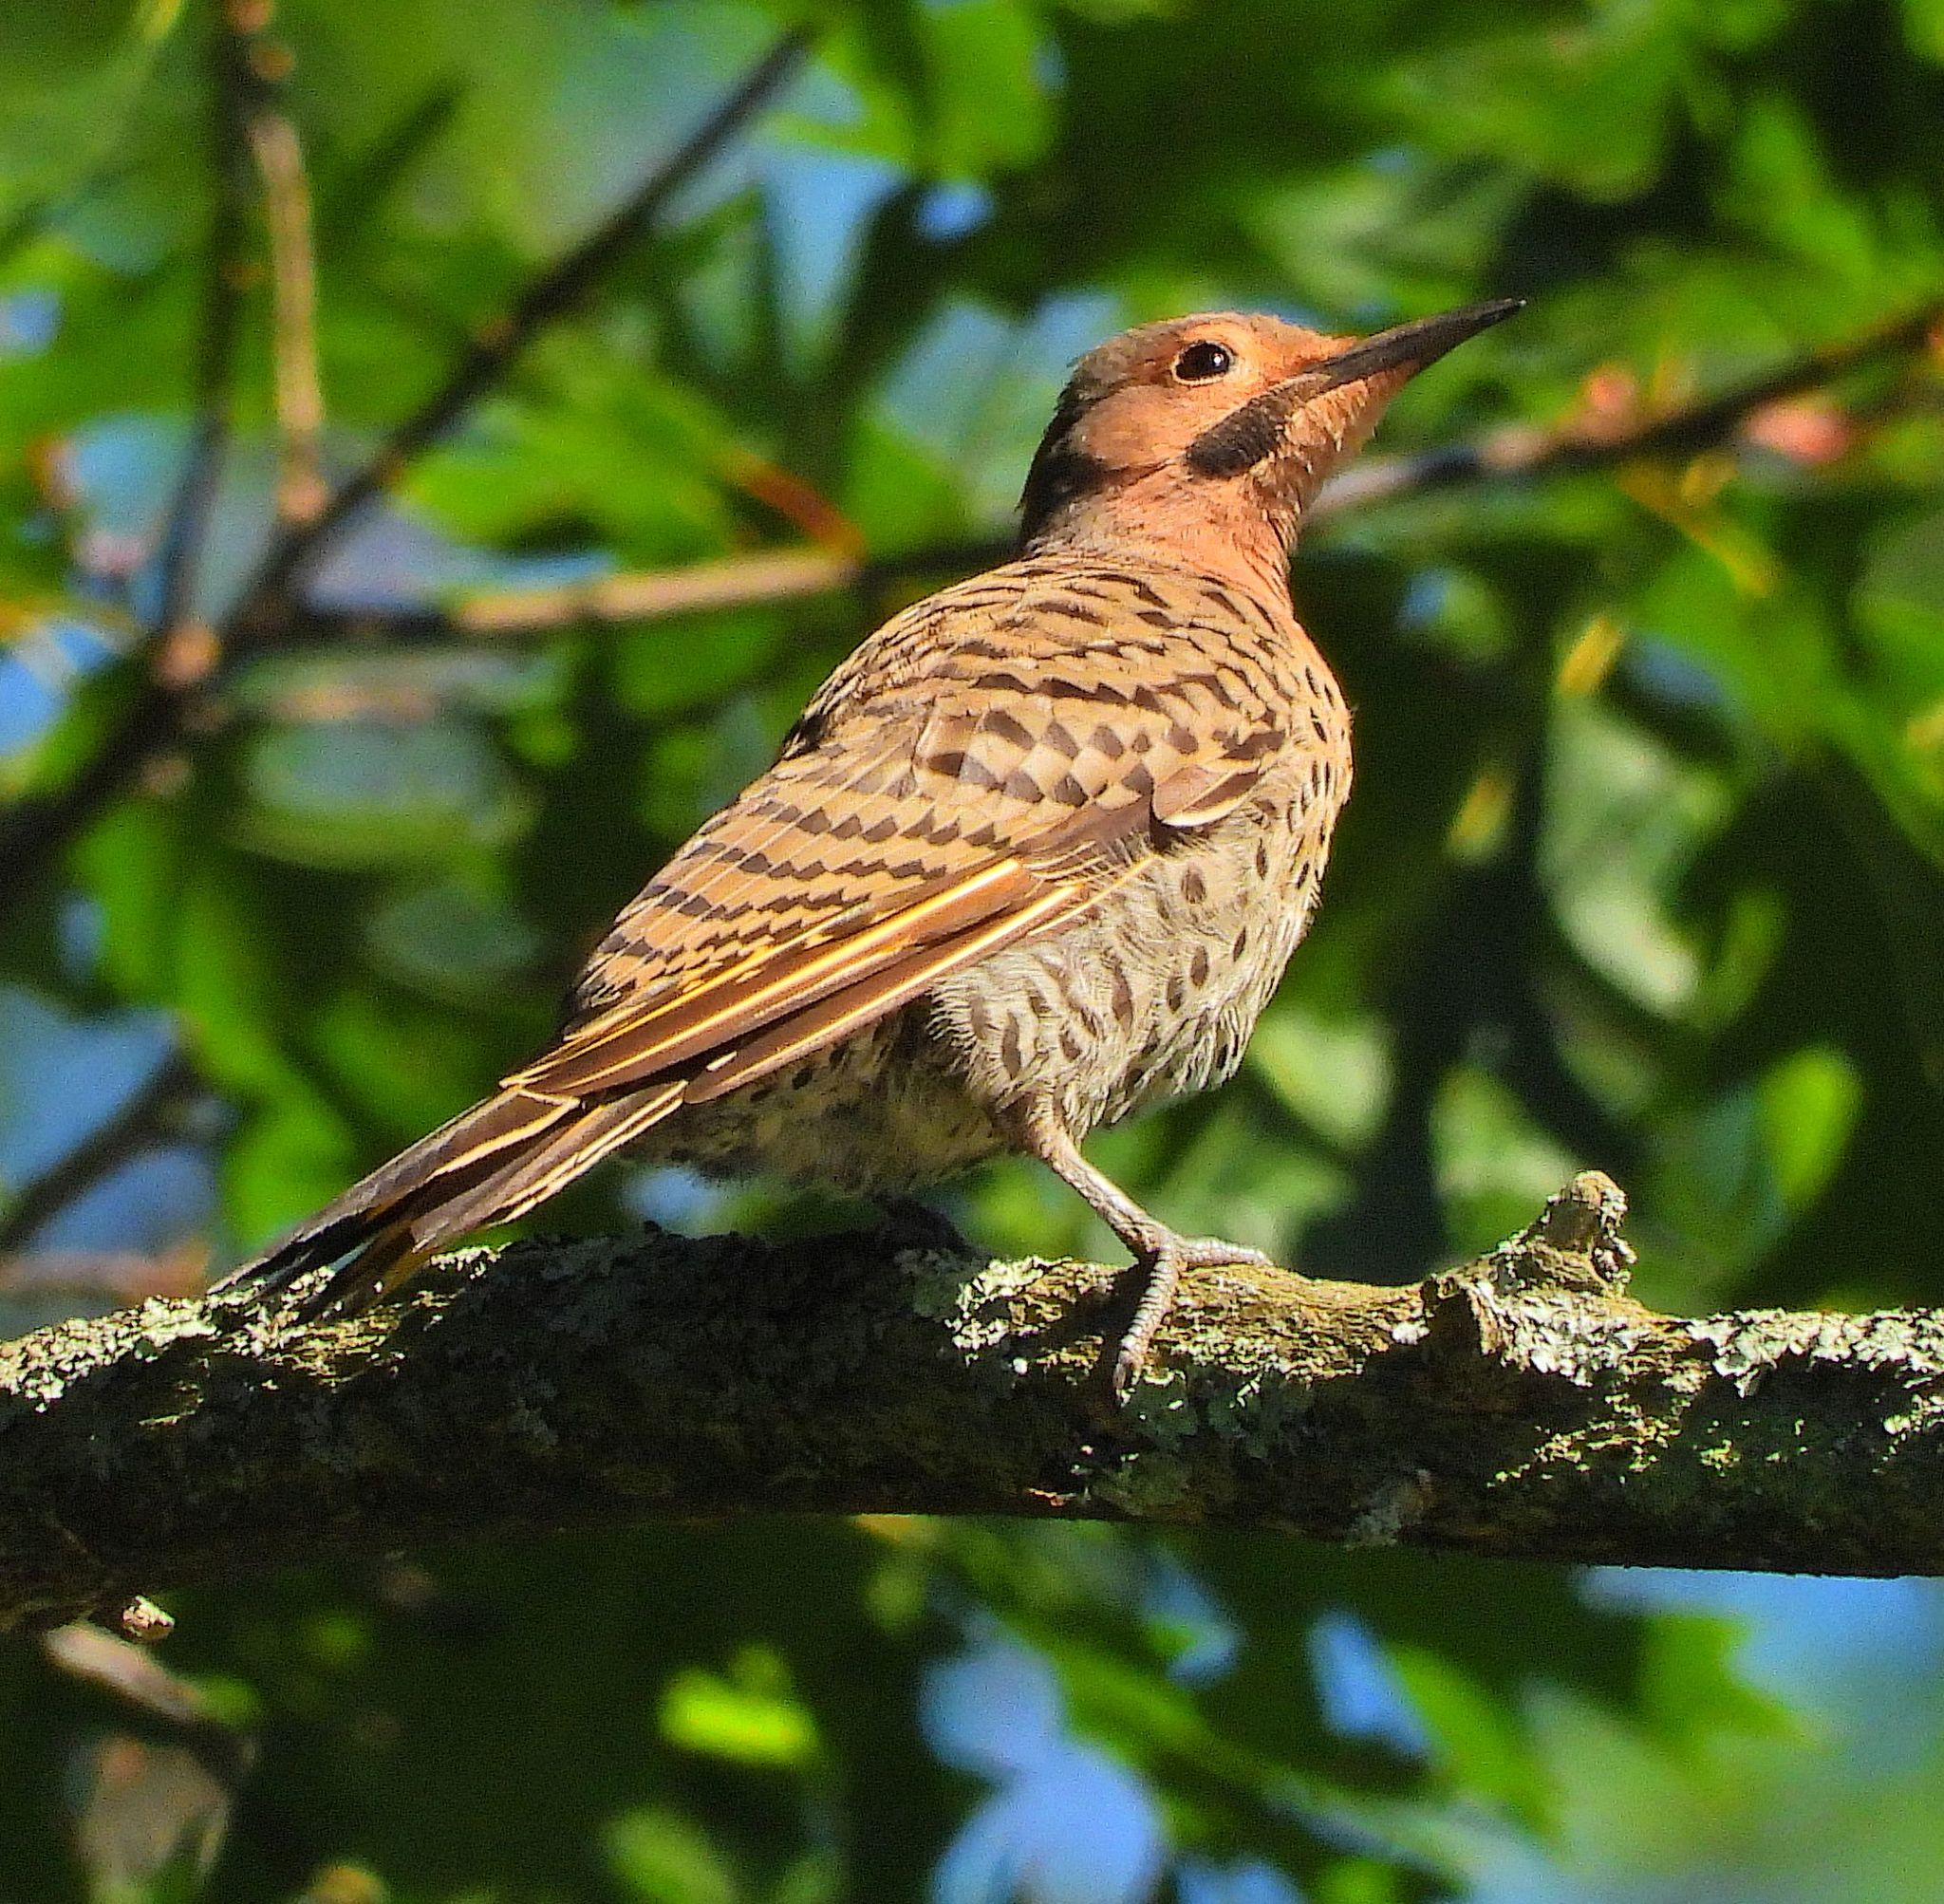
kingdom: Animalia
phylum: Chordata
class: Aves
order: Piciformes
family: Picidae
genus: Colaptes
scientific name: Colaptes auratus
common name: Northern flicker
